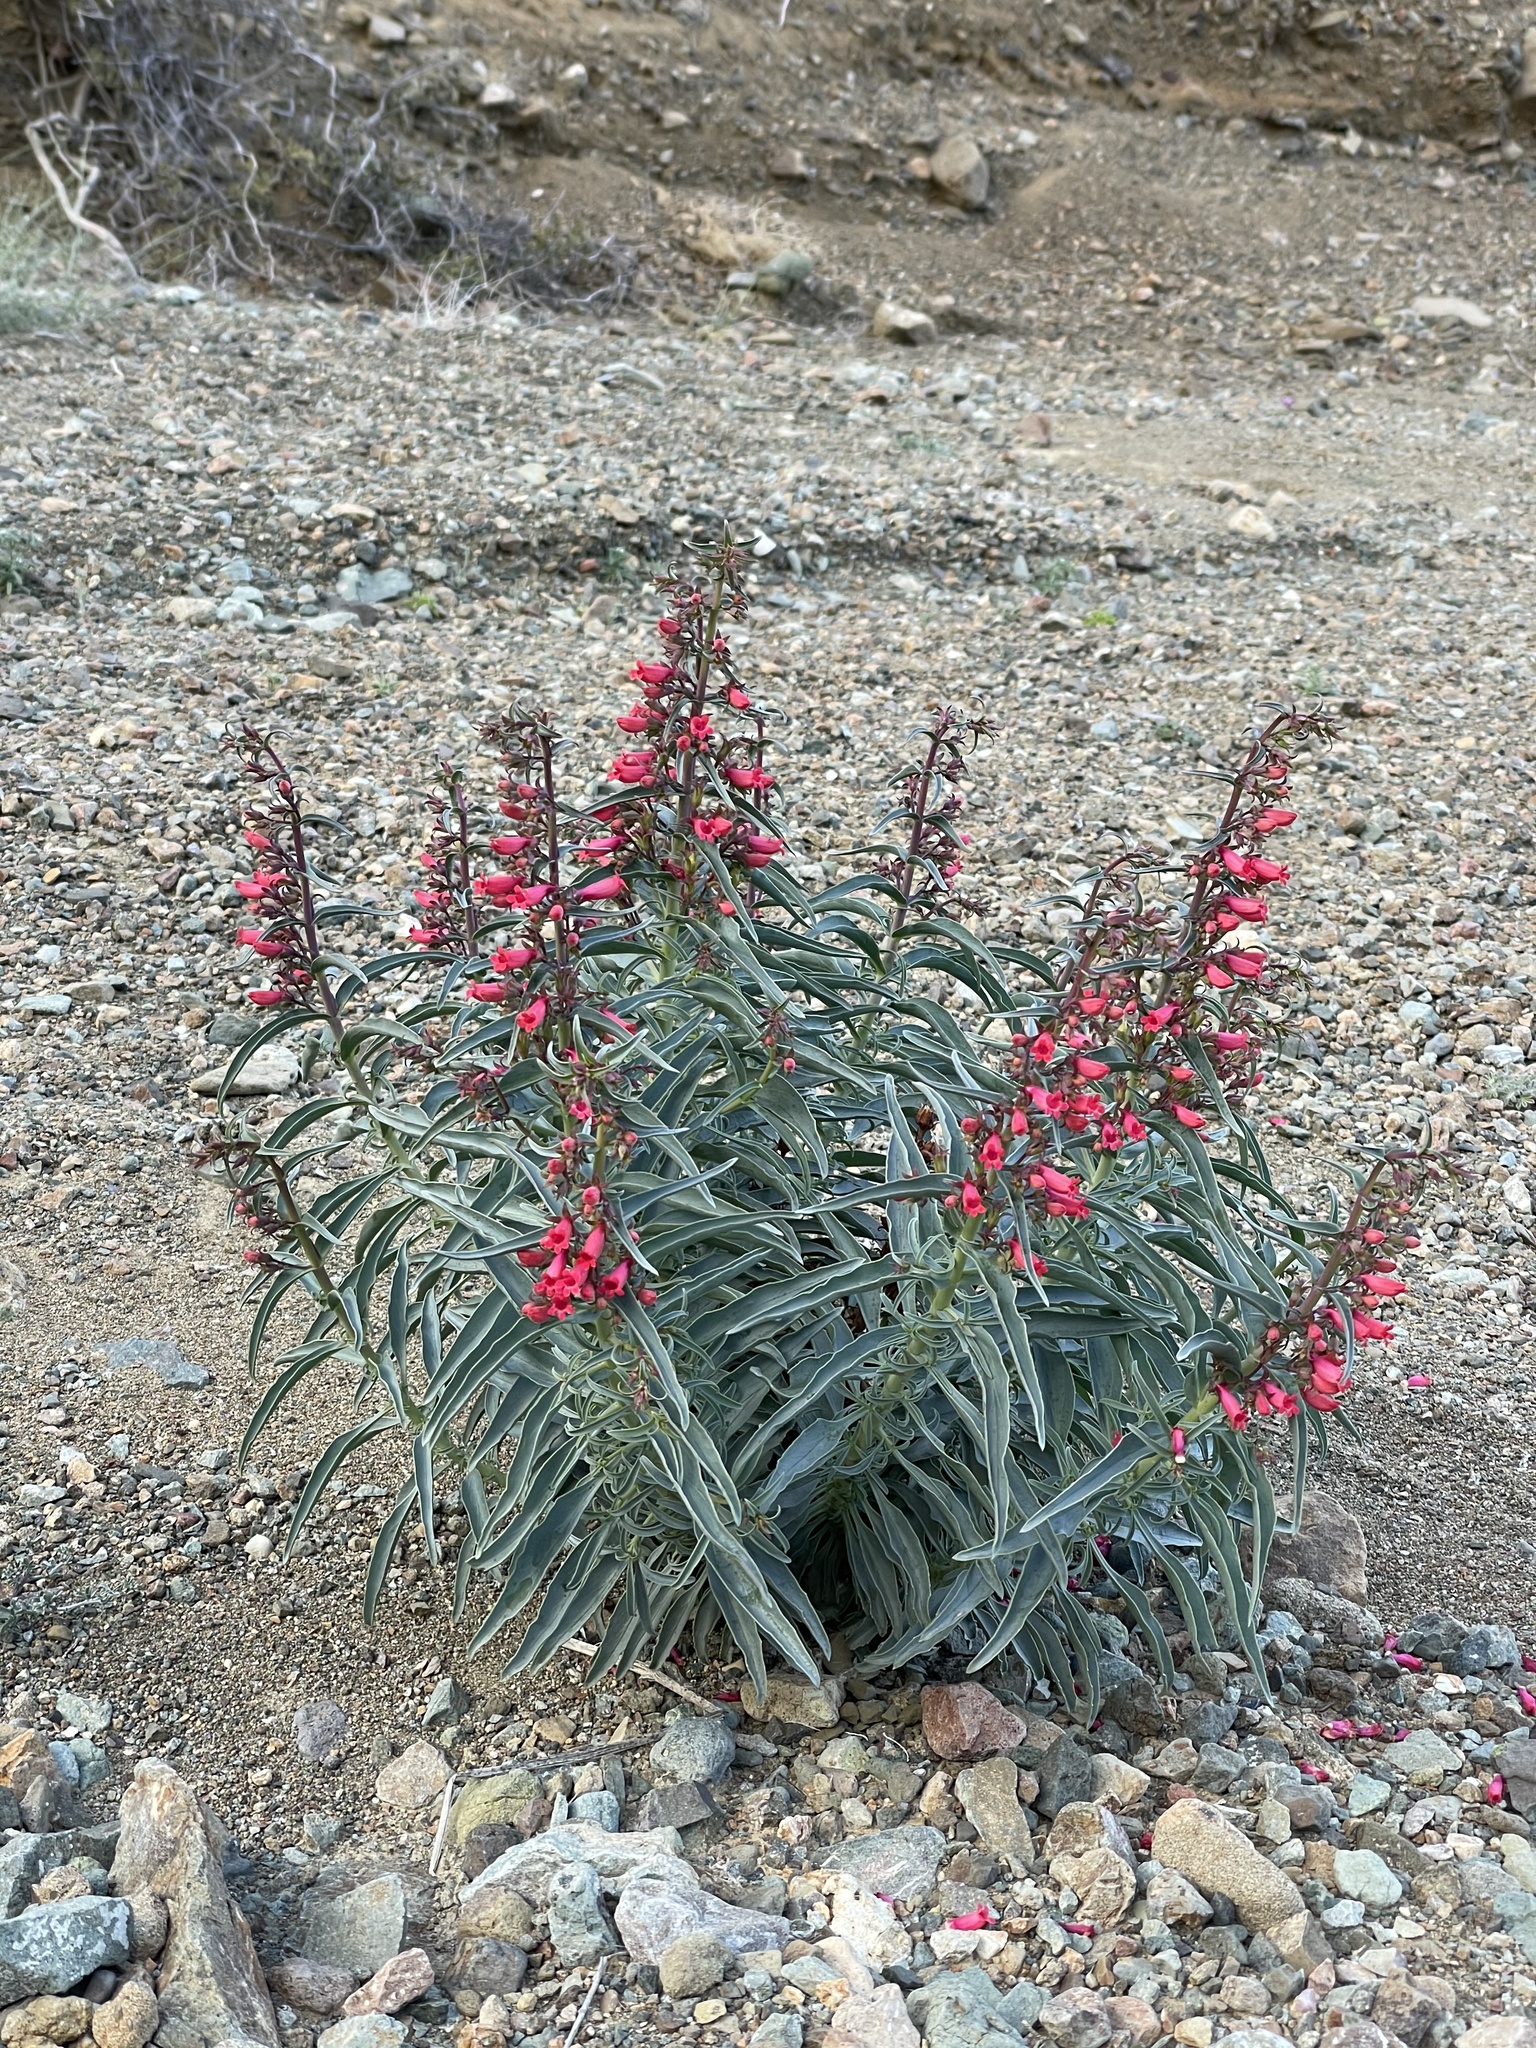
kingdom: Plantae
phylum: Tracheophyta
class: Magnoliopsida
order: Lamiales
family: Plantaginaceae
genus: Penstemon
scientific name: Penstemon cedrosensis
